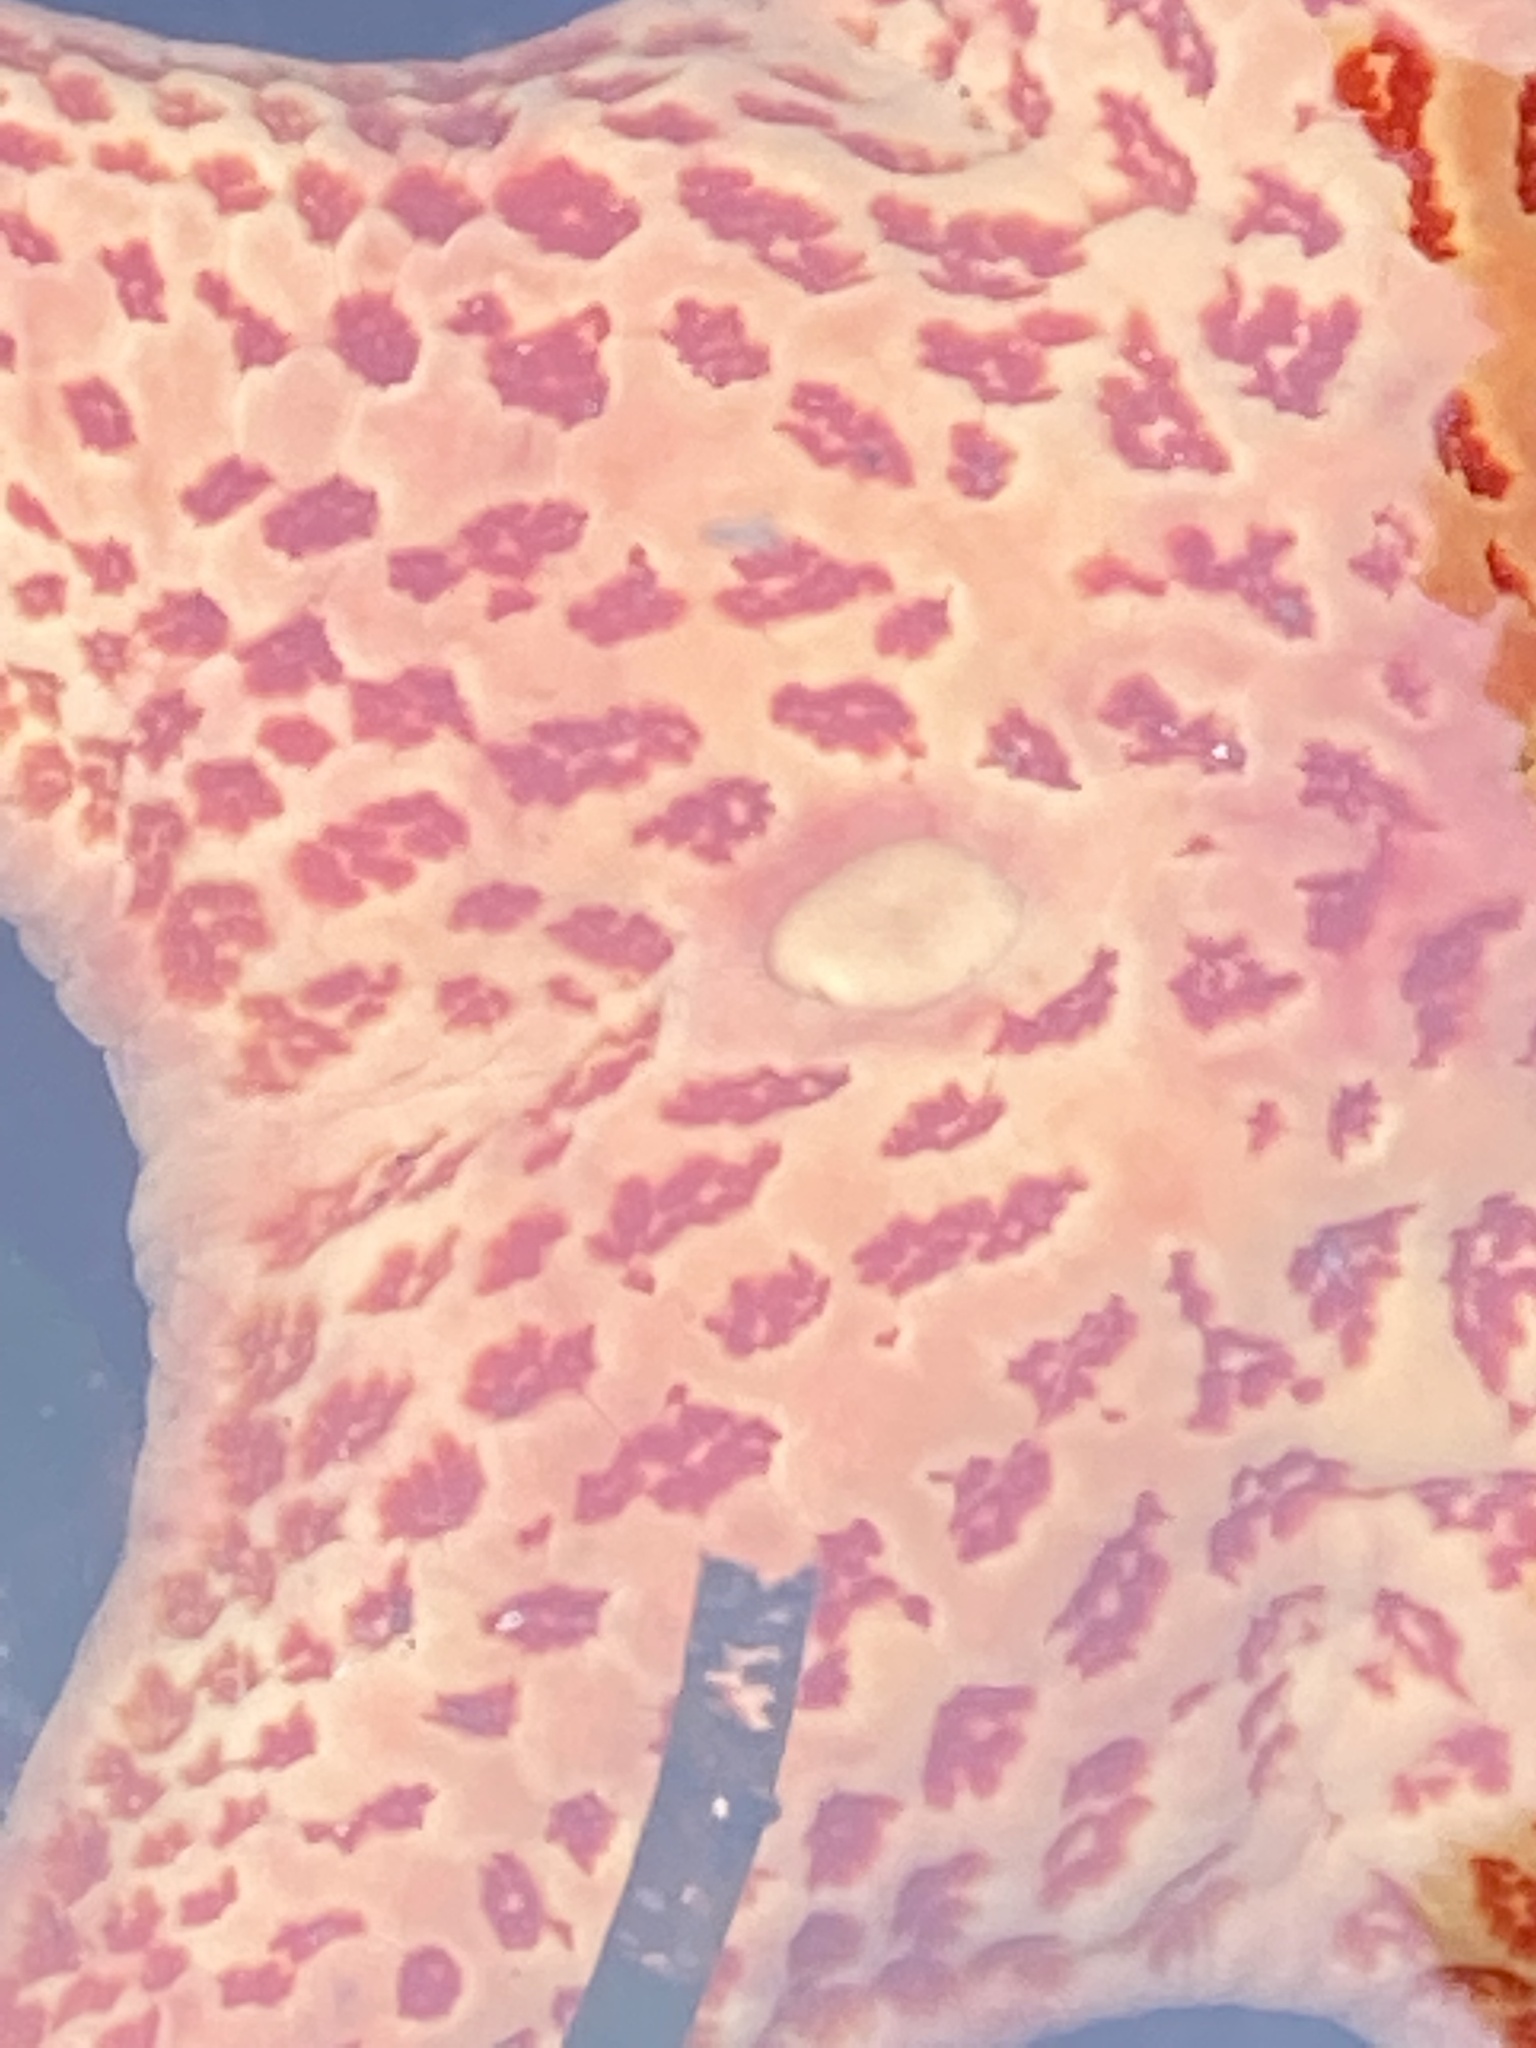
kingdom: Animalia
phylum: Echinodermata
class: Asteroidea
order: Valvatida
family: Asteropseidae
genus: Dermasterias
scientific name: Dermasterias imbricata
